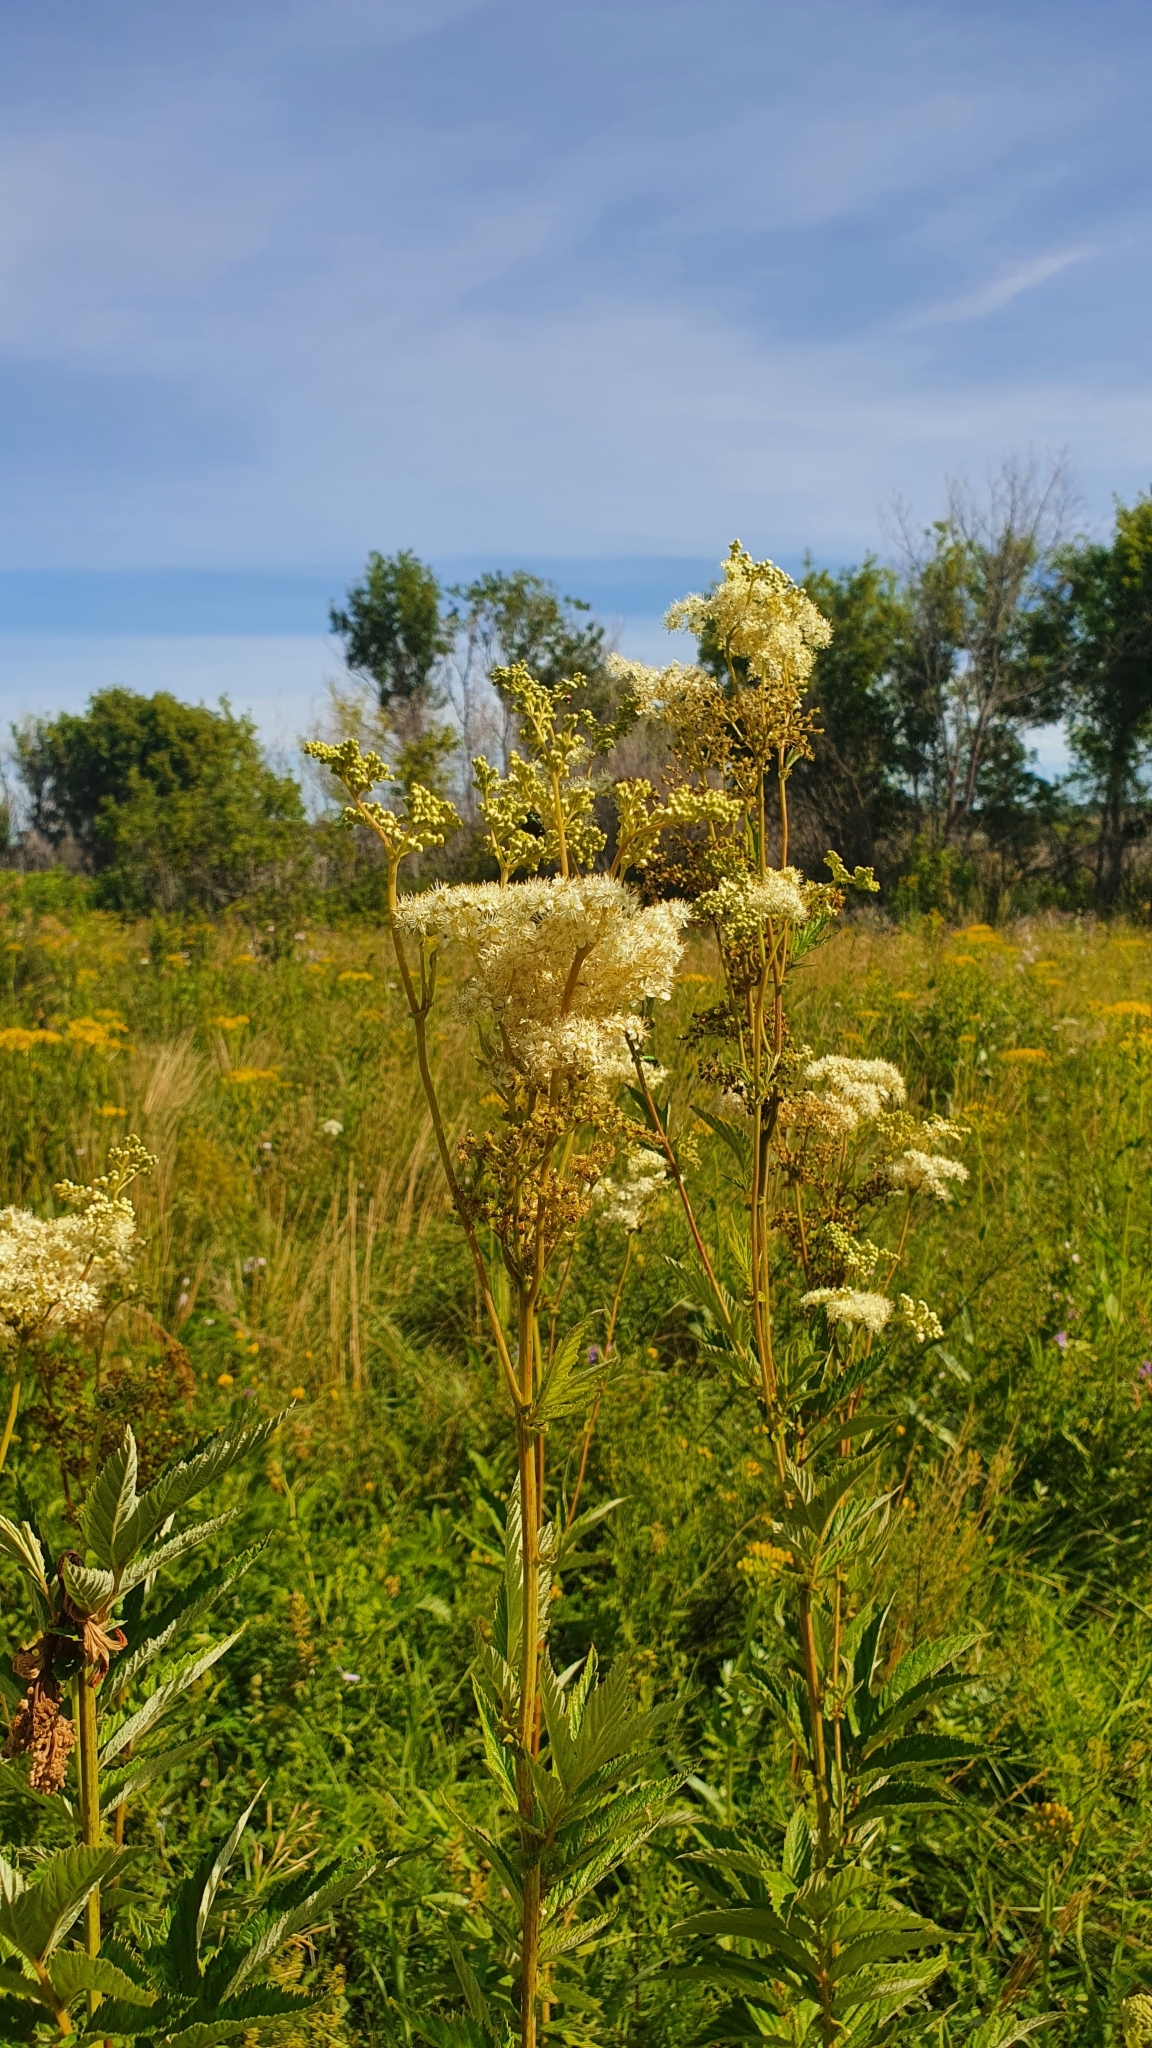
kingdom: Plantae
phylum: Tracheophyta
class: Magnoliopsida
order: Rosales
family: Rosaceae
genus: Filipendula
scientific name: Filipendula ulmaria
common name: Meadowsweet
